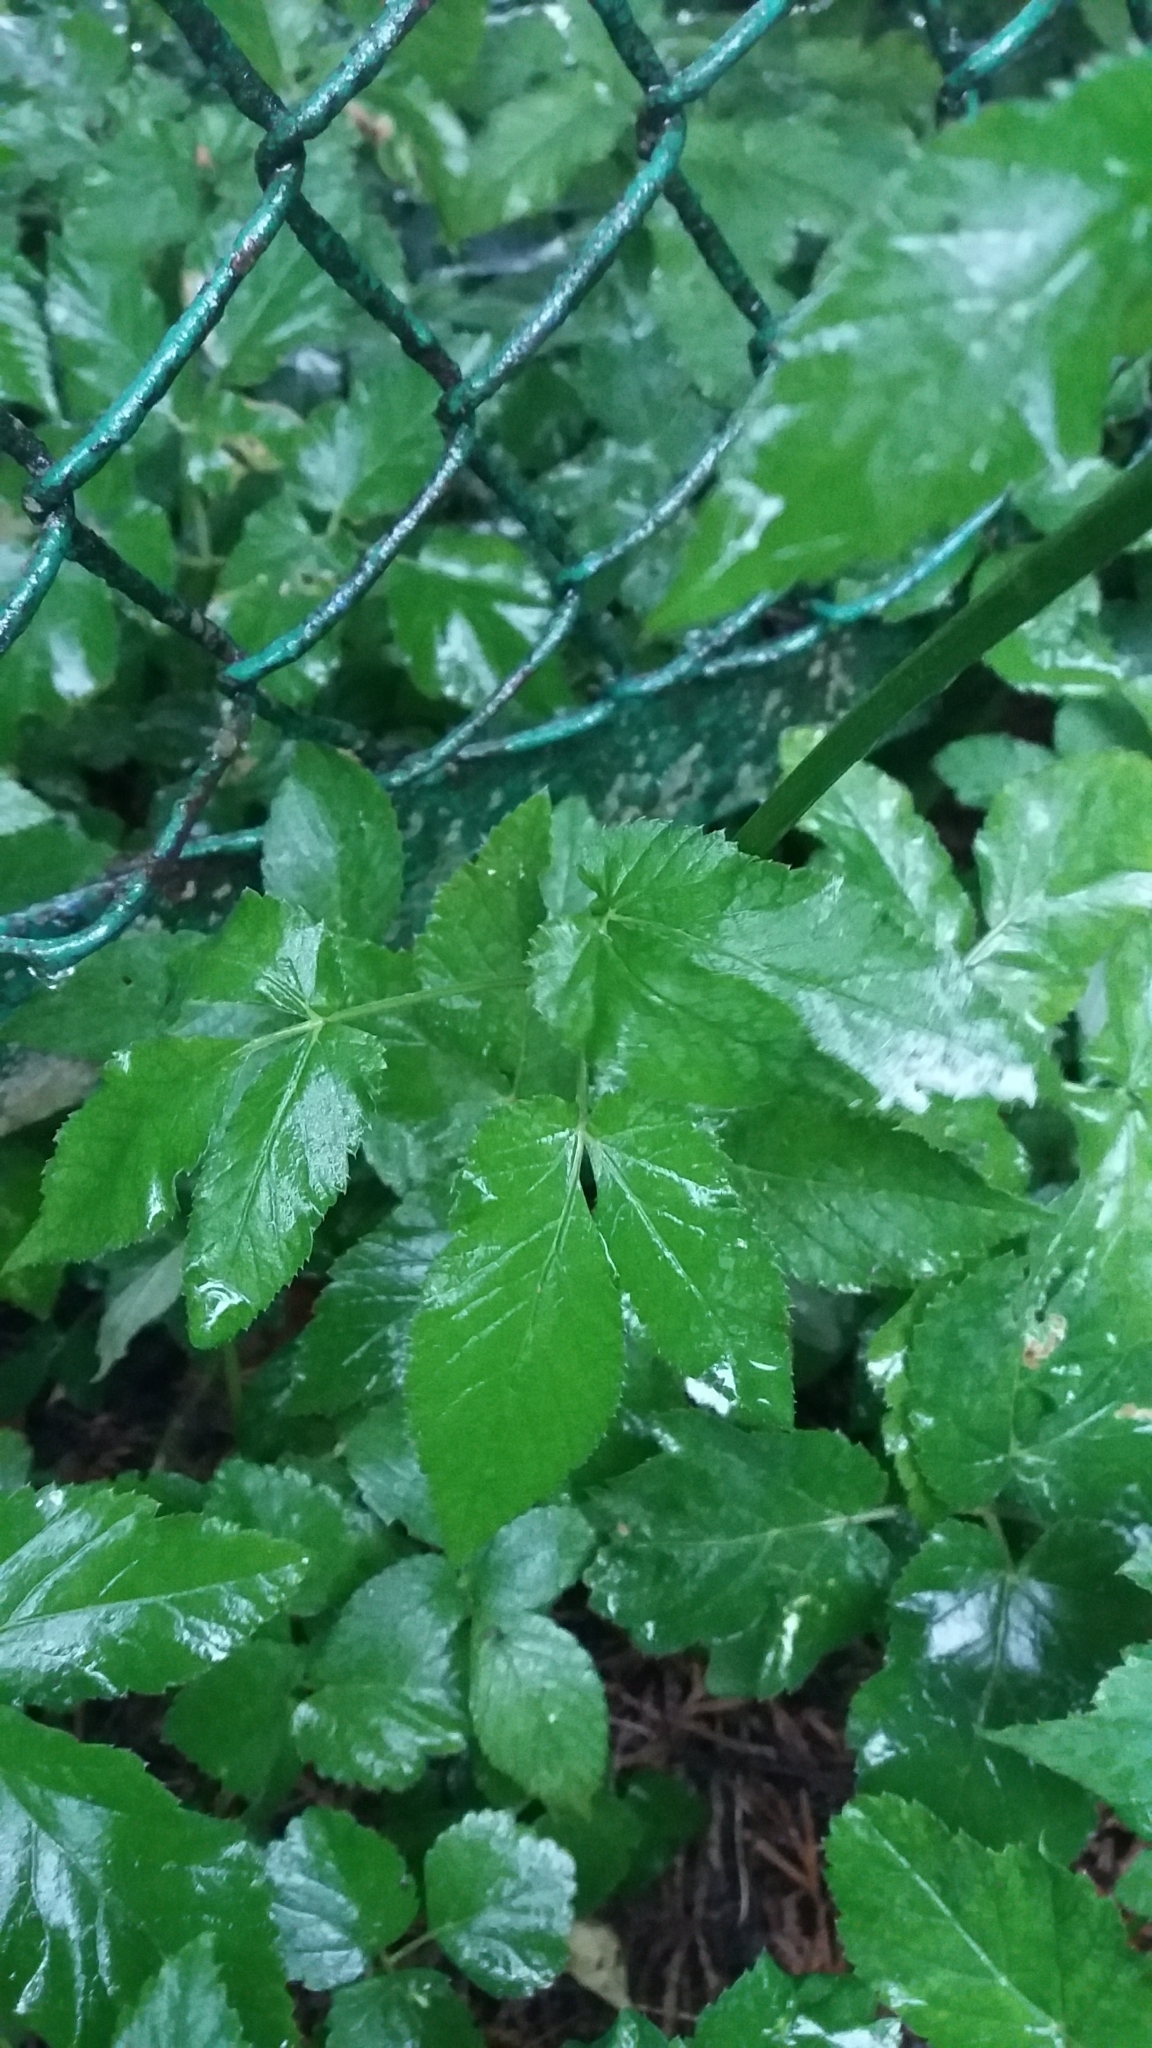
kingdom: Plantae
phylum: Tracheophyta
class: Magnoliopsida
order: Apiales
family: Apiaceae
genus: Aegopodium
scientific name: Aegopodium podagraria
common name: Ground-elder
